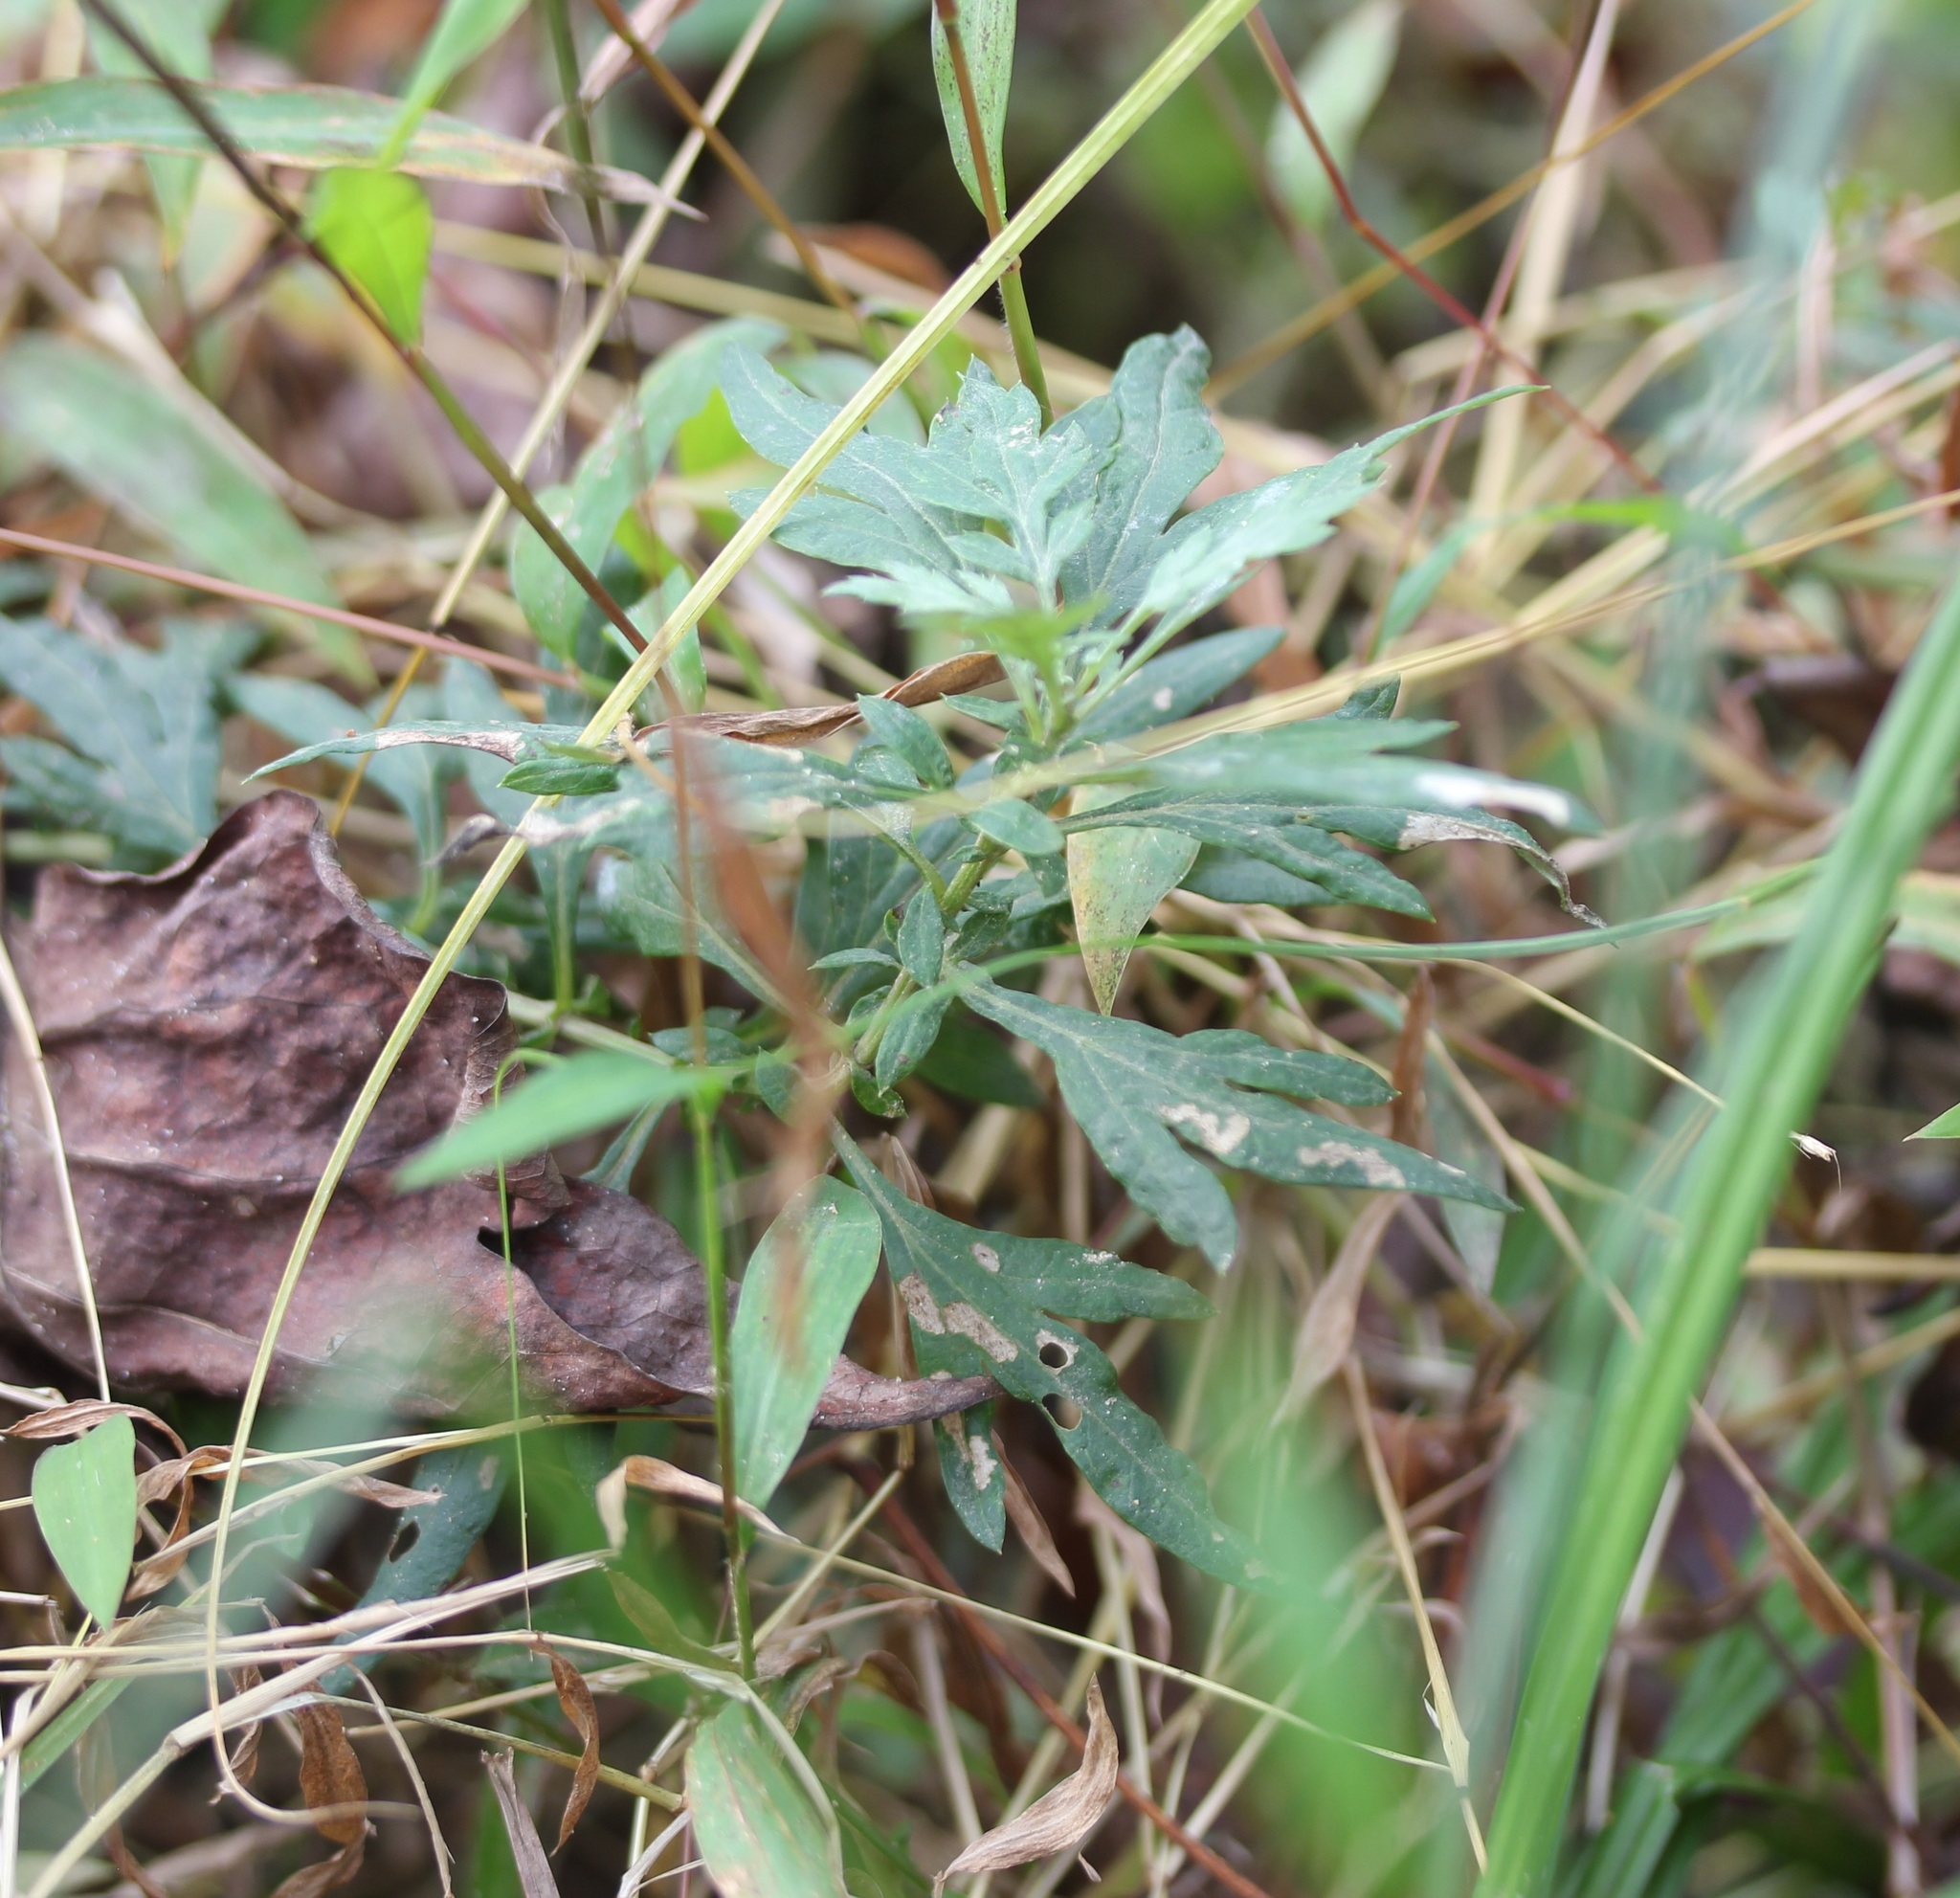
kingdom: Plantae
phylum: Tracheophyta
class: Magnoliopsida
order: Asterales
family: Asteraceae
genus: Artemisia
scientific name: Artemisia vulgaris
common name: Mugwort
